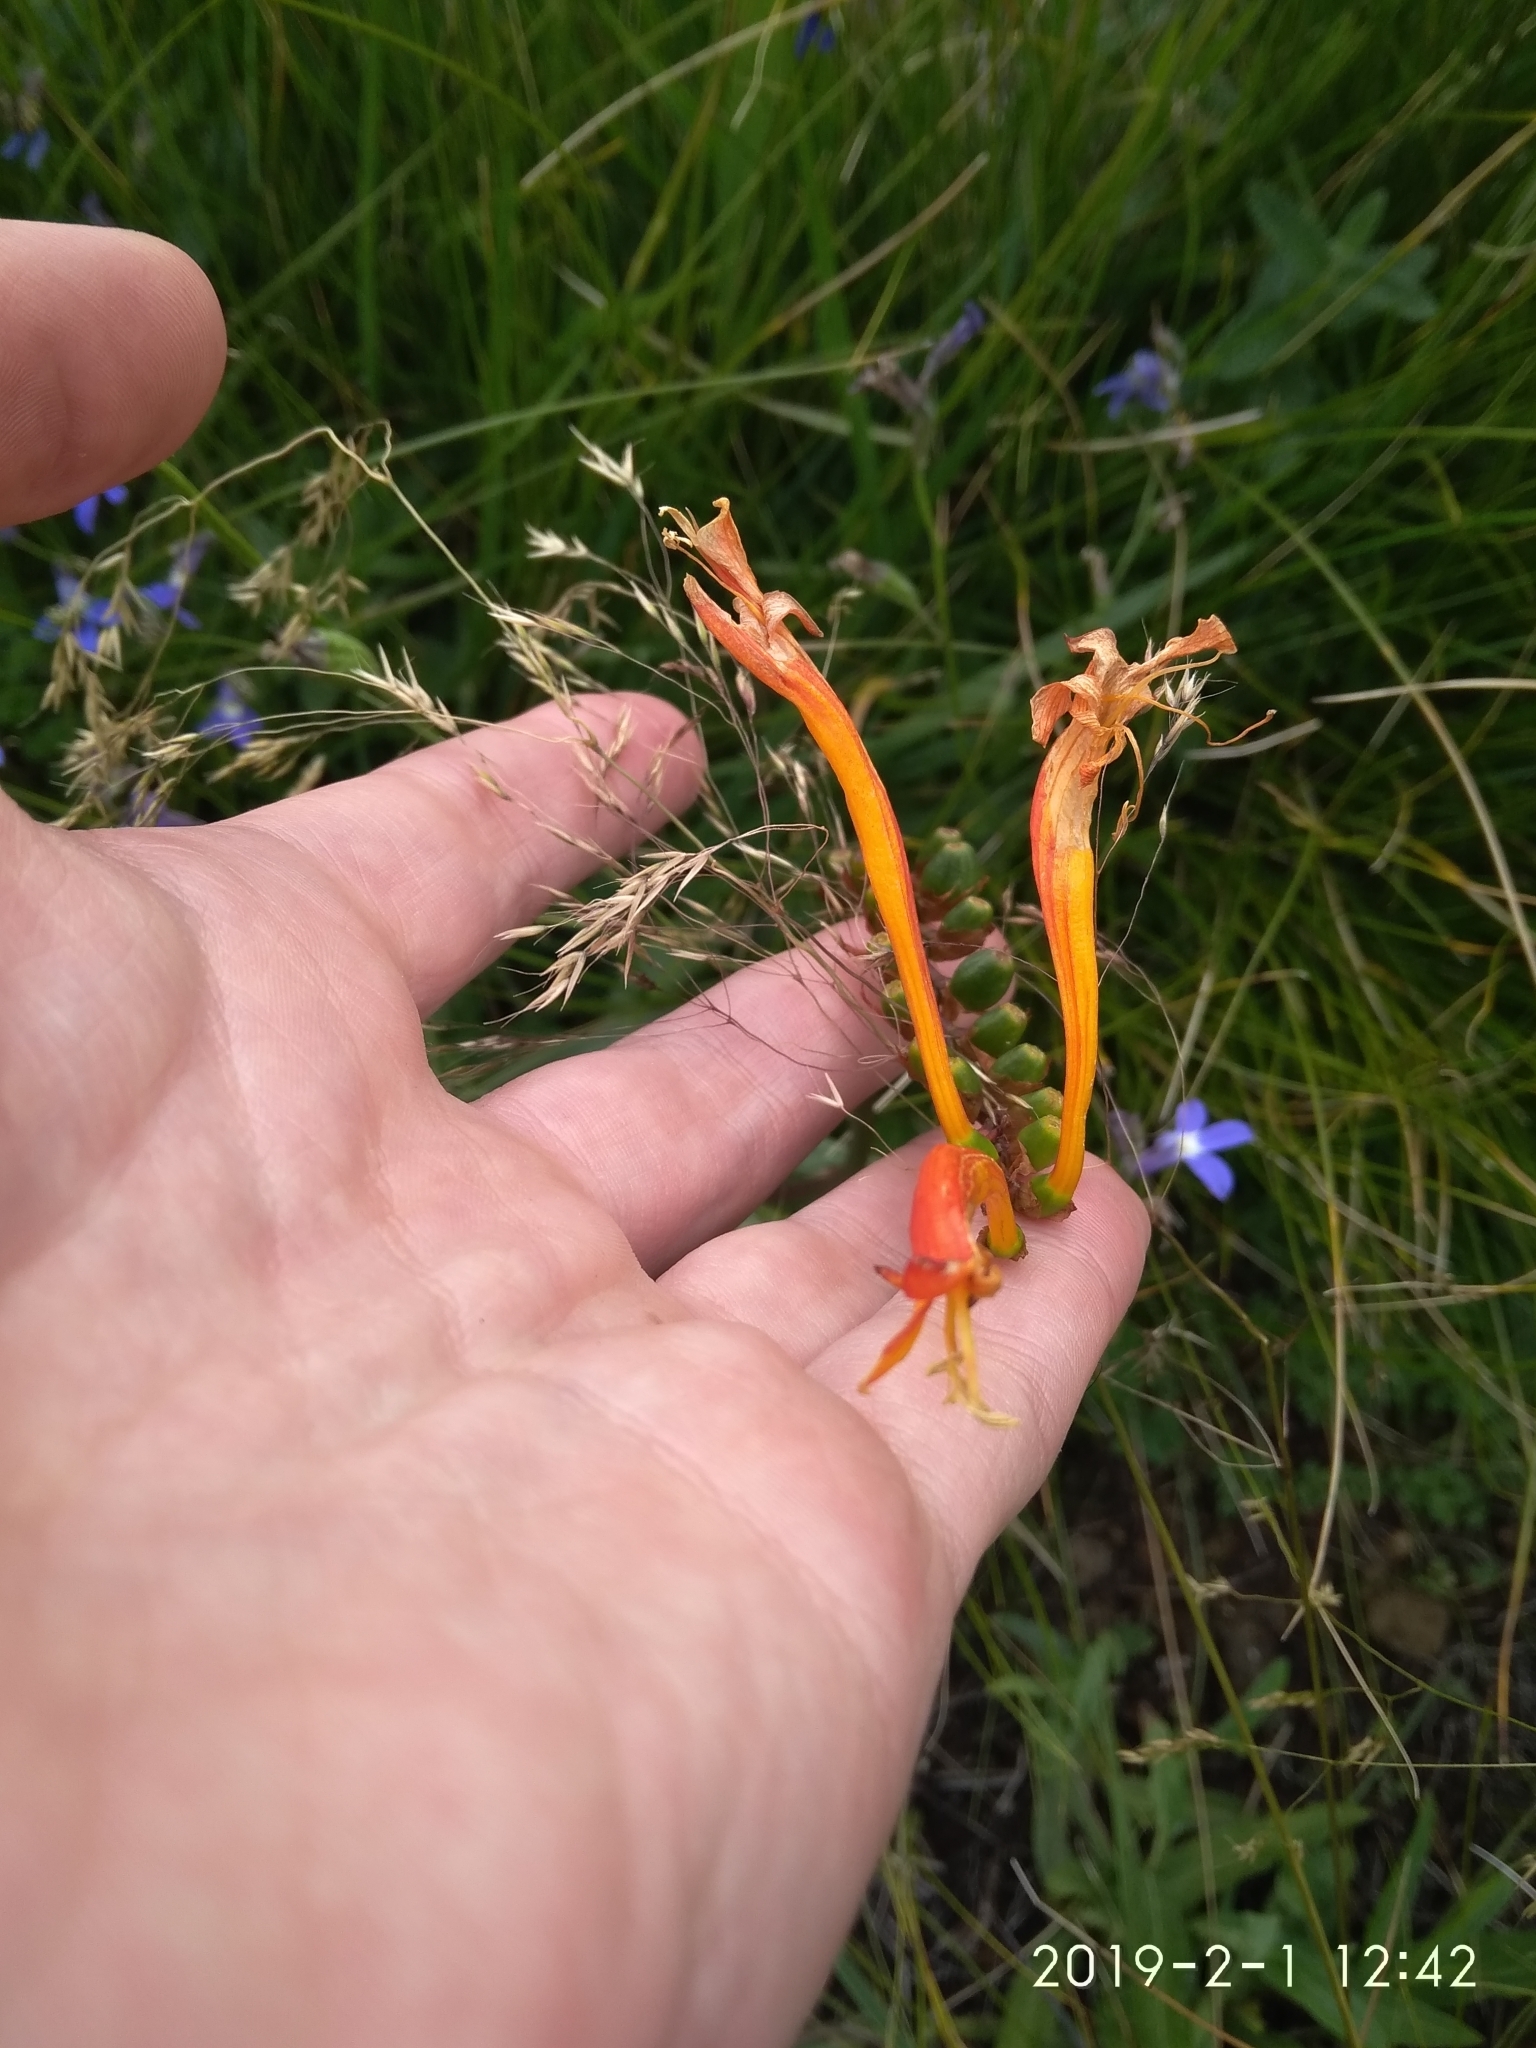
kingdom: Plantae
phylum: Tracheophyta
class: Liliopsida
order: Asparagales
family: Iridaceae
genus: Crocosmia
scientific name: Crocosmia pearsei
